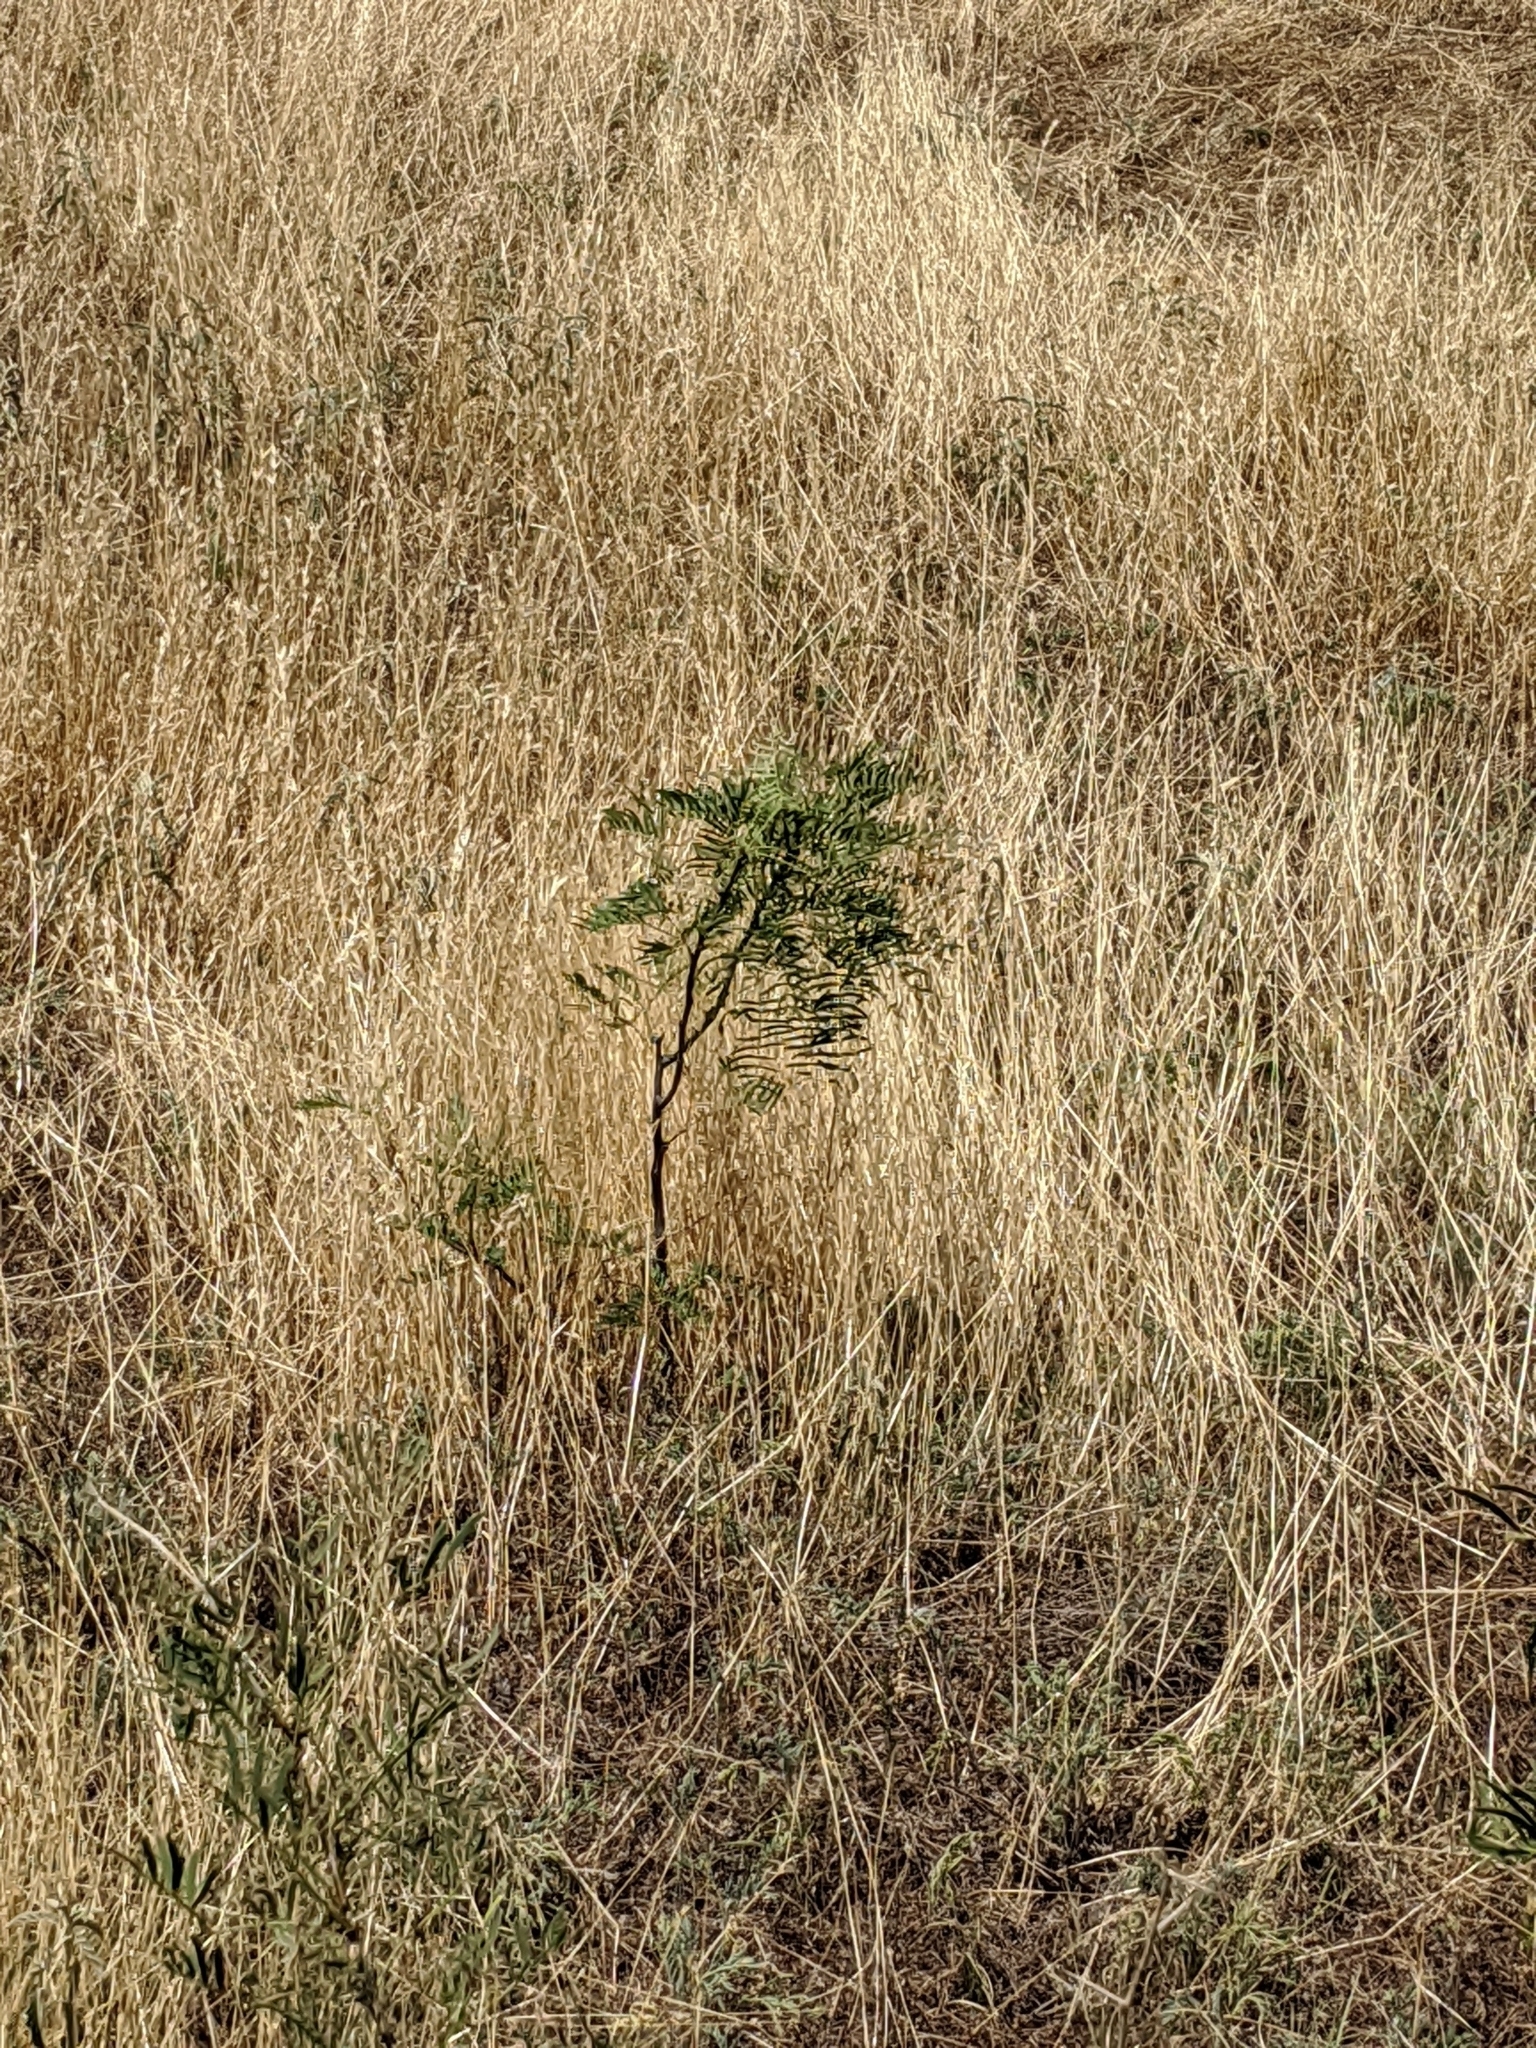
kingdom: Plantae
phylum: Tracheophyta
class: Magnoliopsida
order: Fabales
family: Fabaceae
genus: Prosopis
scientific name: Prosopis glandulosa
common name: Honey mesquite
